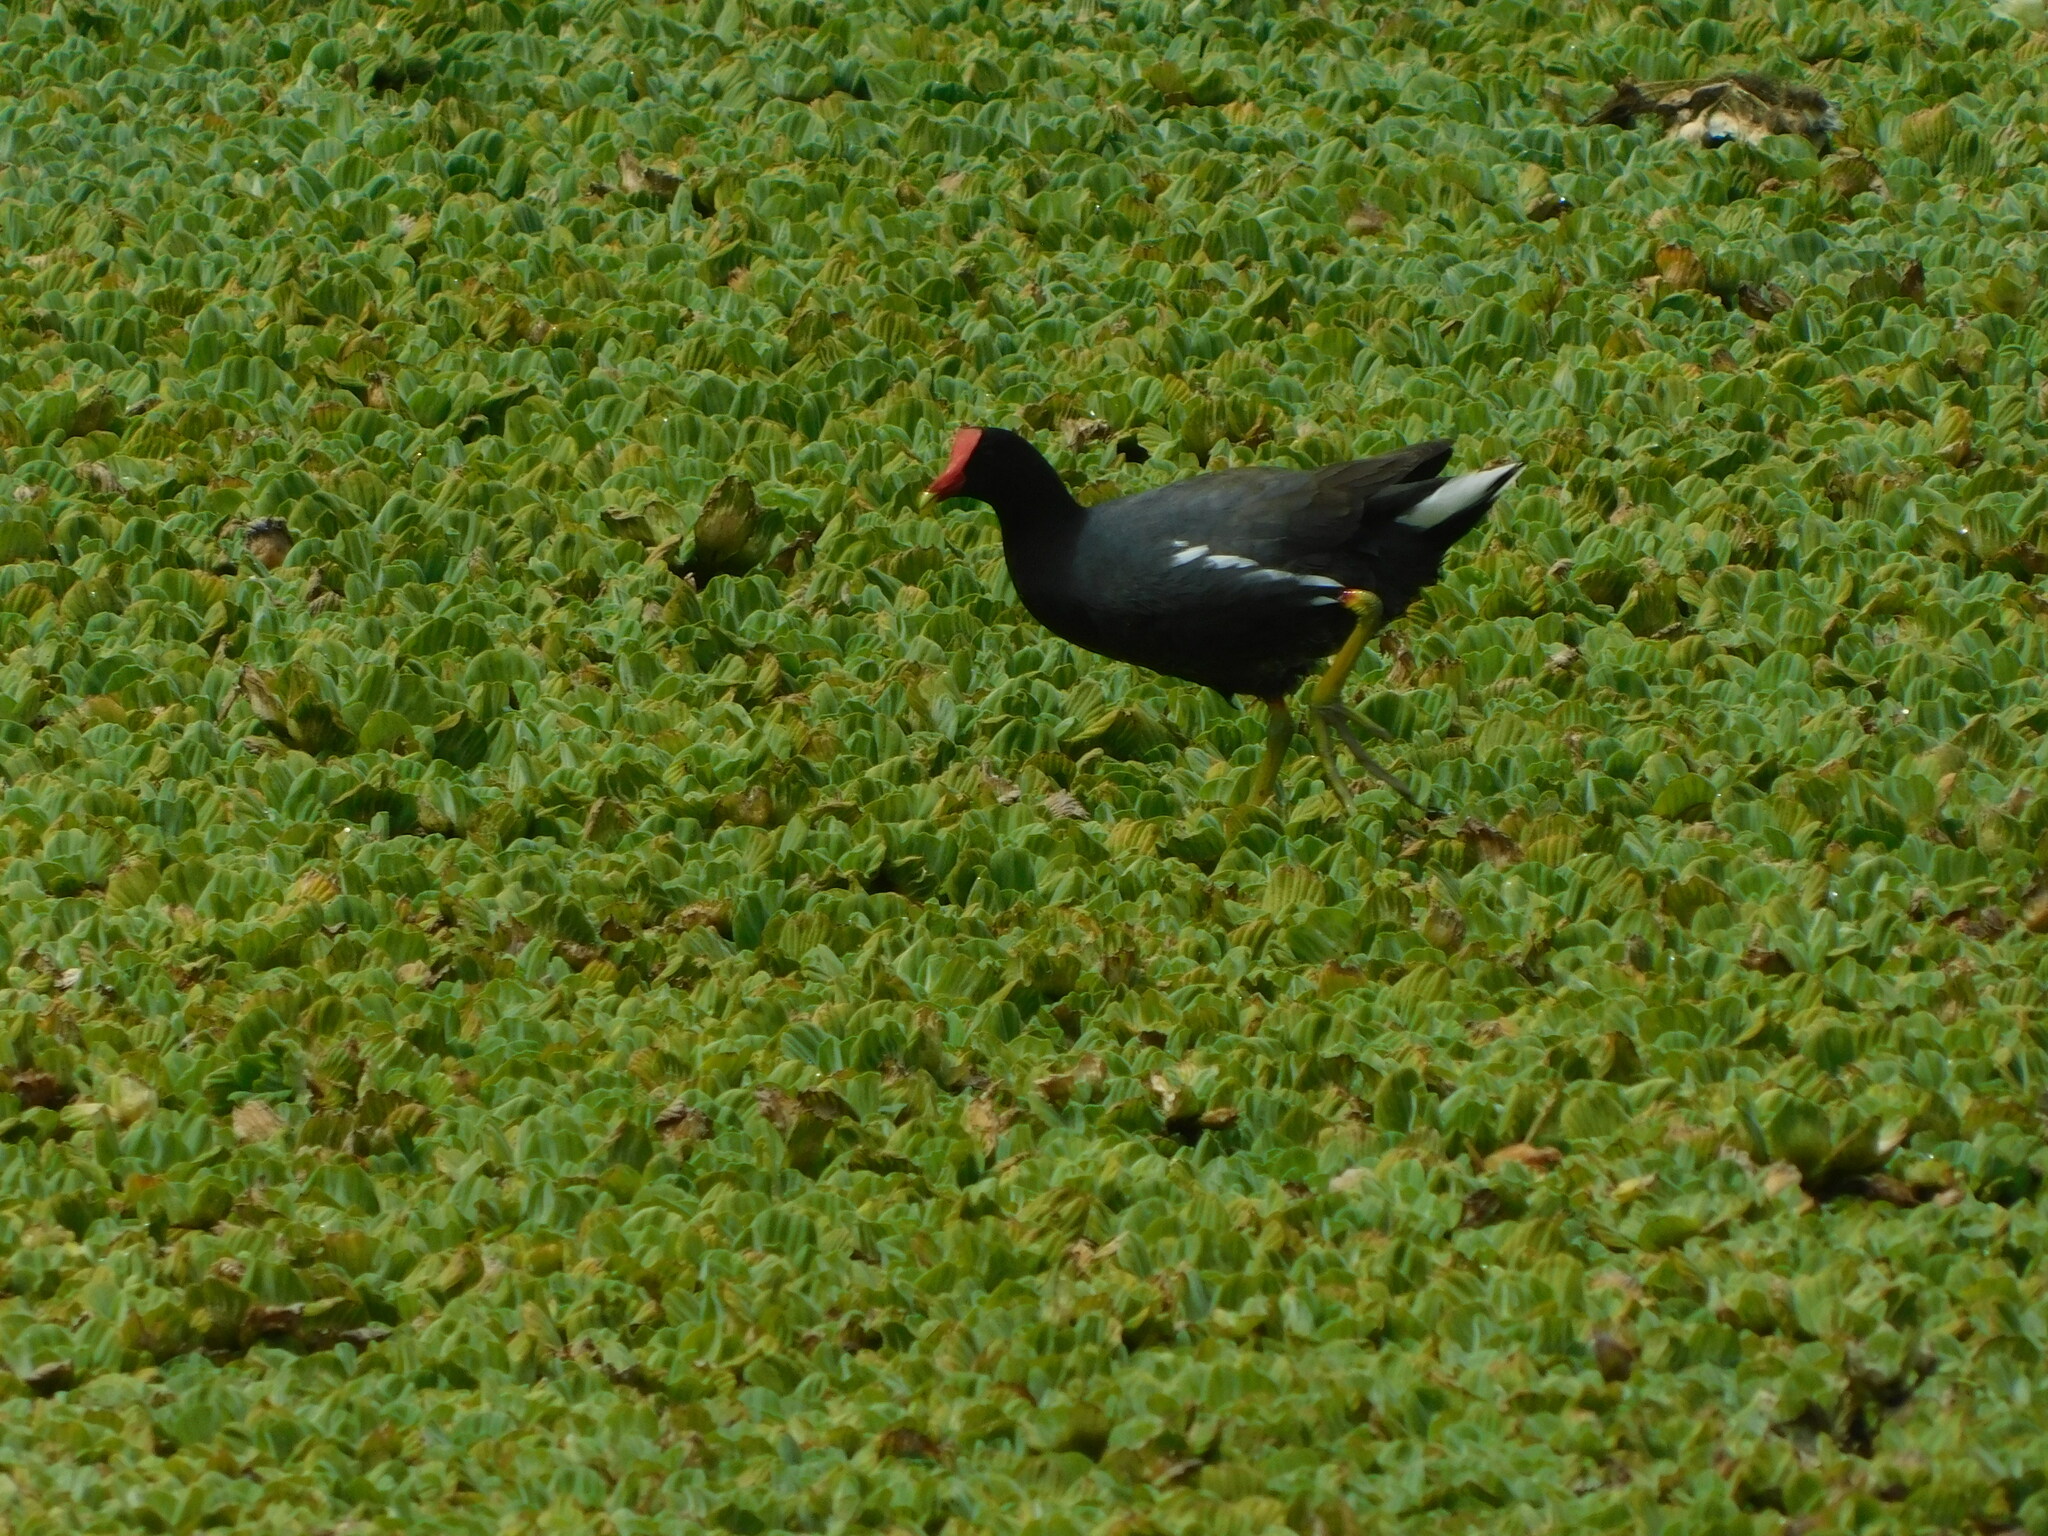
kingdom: Animalia
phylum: Chordata
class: Aves
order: Gruiformes
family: Rallidae
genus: Gallinula
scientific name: Gallinula chloropus
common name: Common moorhen
